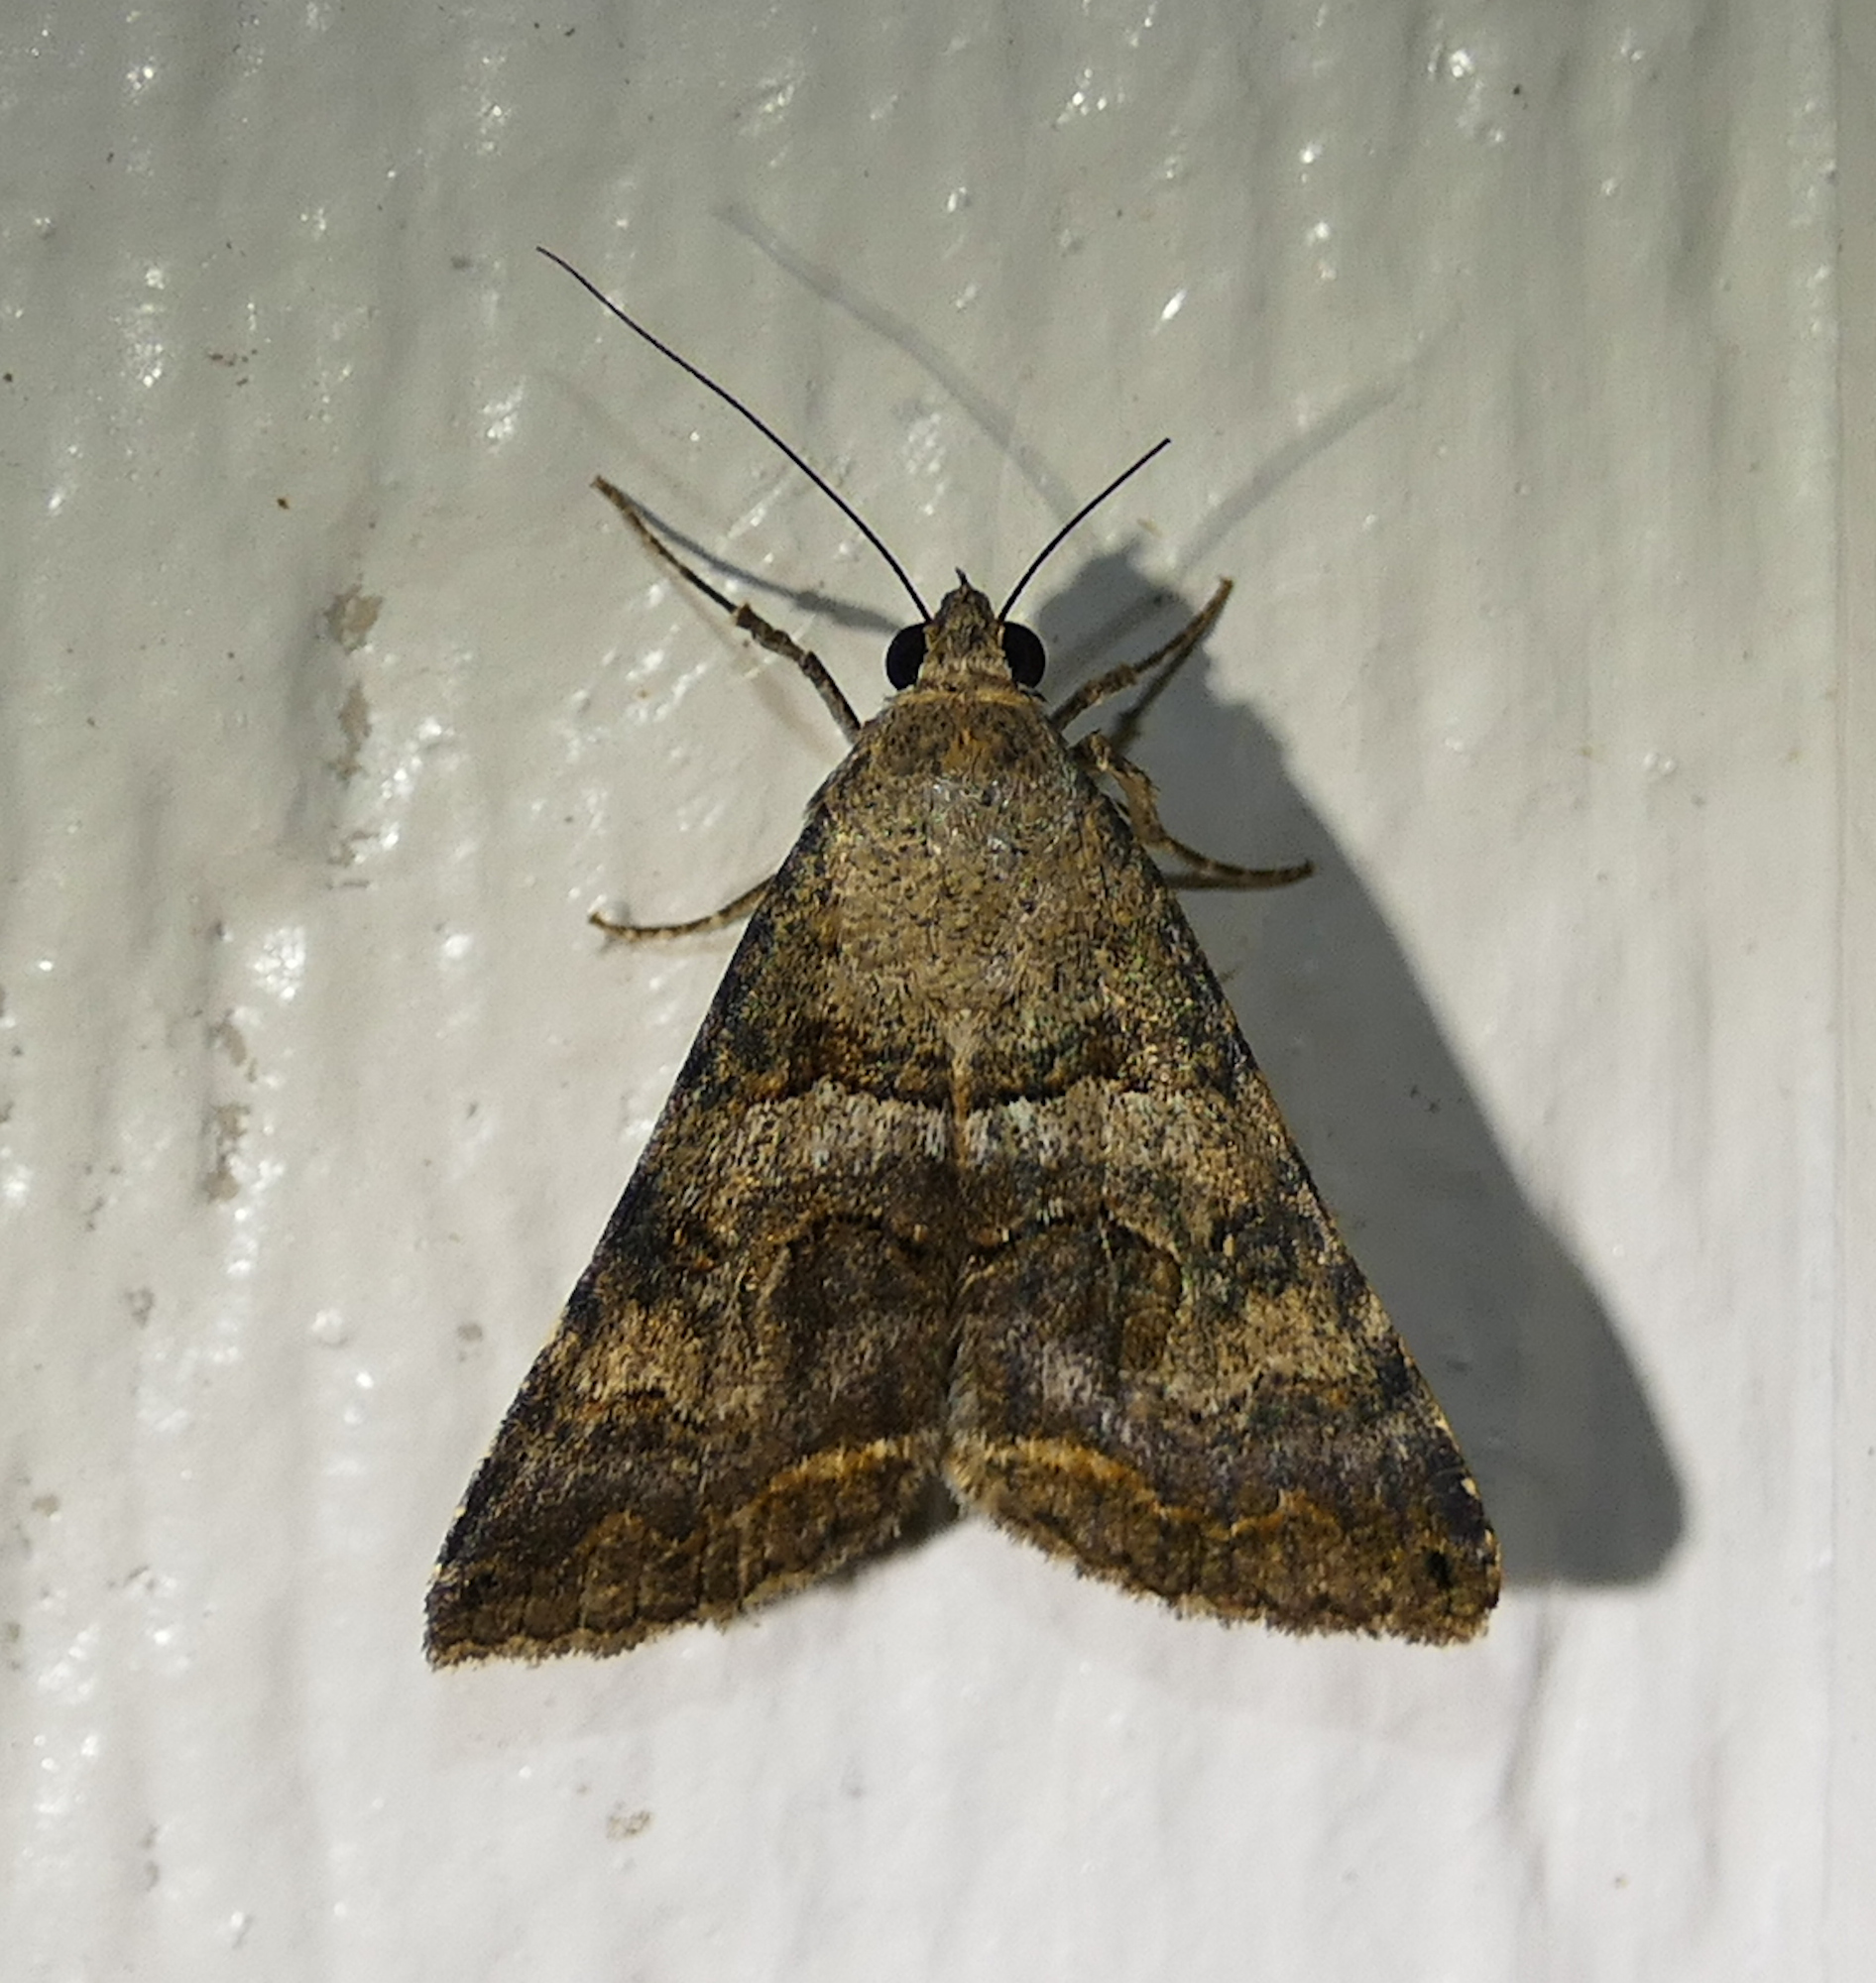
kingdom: Animalia
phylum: Arthropoda
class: Insecta
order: Lepidoptera
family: Erebidae
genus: Bulia
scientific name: Bulia deducta
